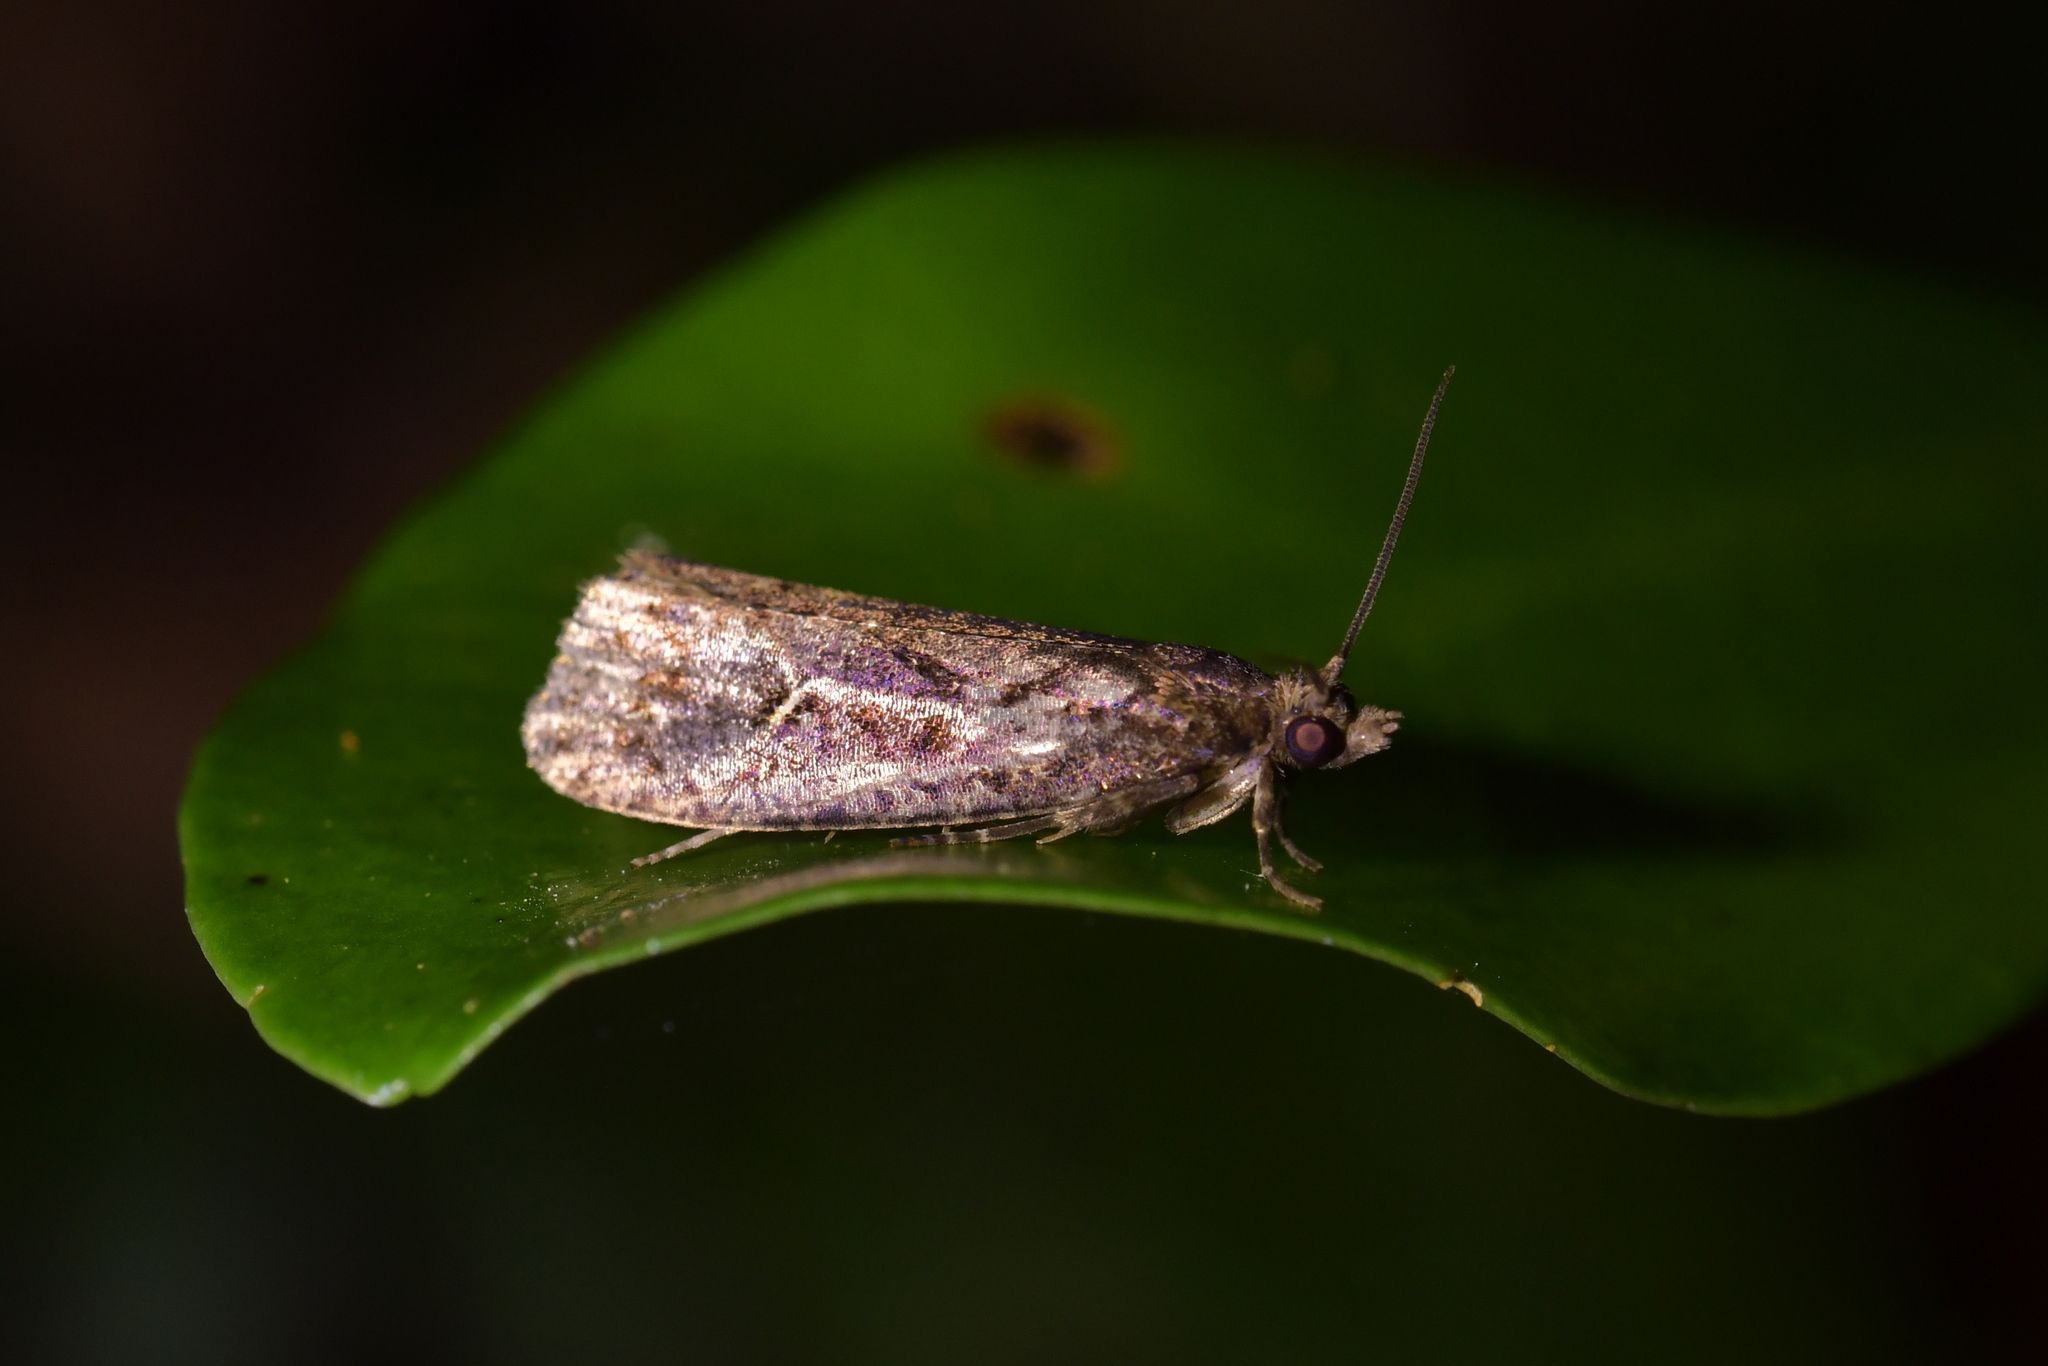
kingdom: Animalia
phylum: Arthropoda
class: Insecta
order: Lepidoptera
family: Tortricidae
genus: Cryptaspasma
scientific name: Cryptaspasma querula
